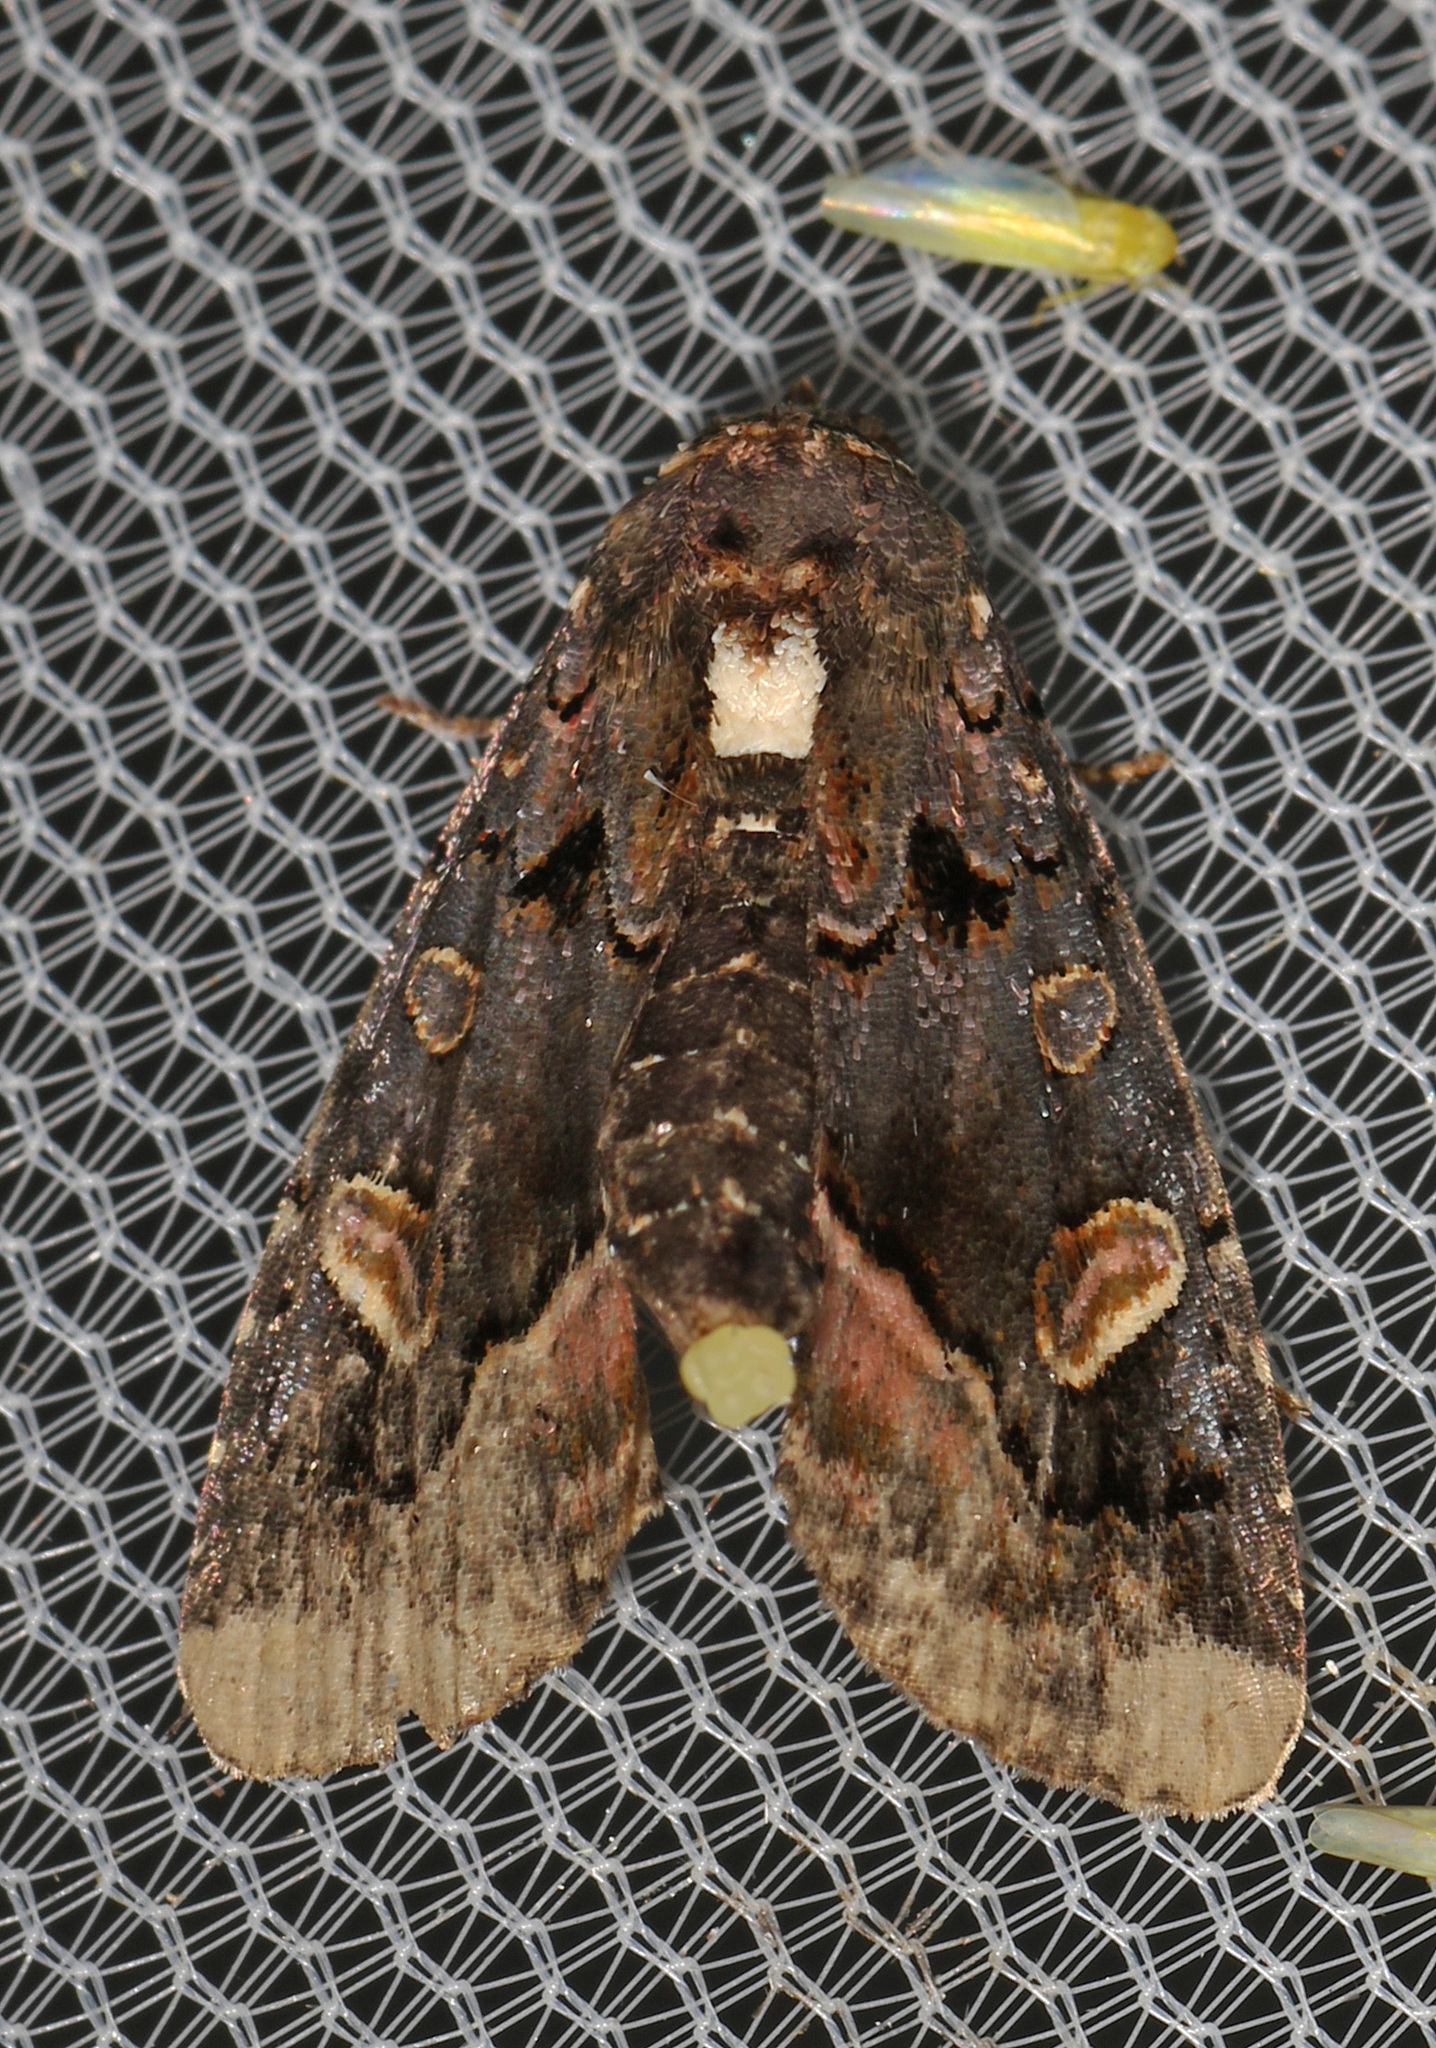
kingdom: Animalia
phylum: Arthropoda
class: Insecta
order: Lepidoptera
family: Noctuidae
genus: Homophoberia
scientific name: Homophoberia apicosa
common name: Black wedge-spot
